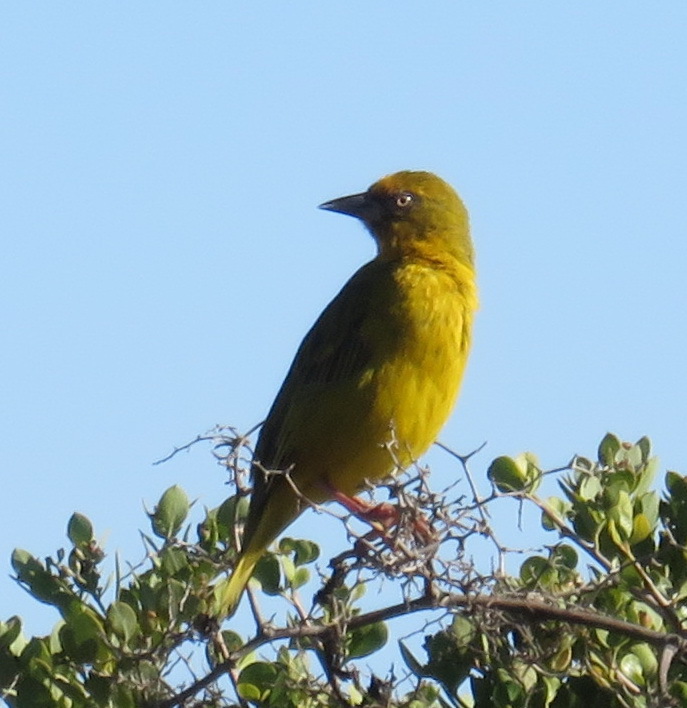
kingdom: Animalia
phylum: Chordata
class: Aves
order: Passeriformes
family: Ploceidae
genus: Ploceus
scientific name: Ploceus capensis
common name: Cape weaver
